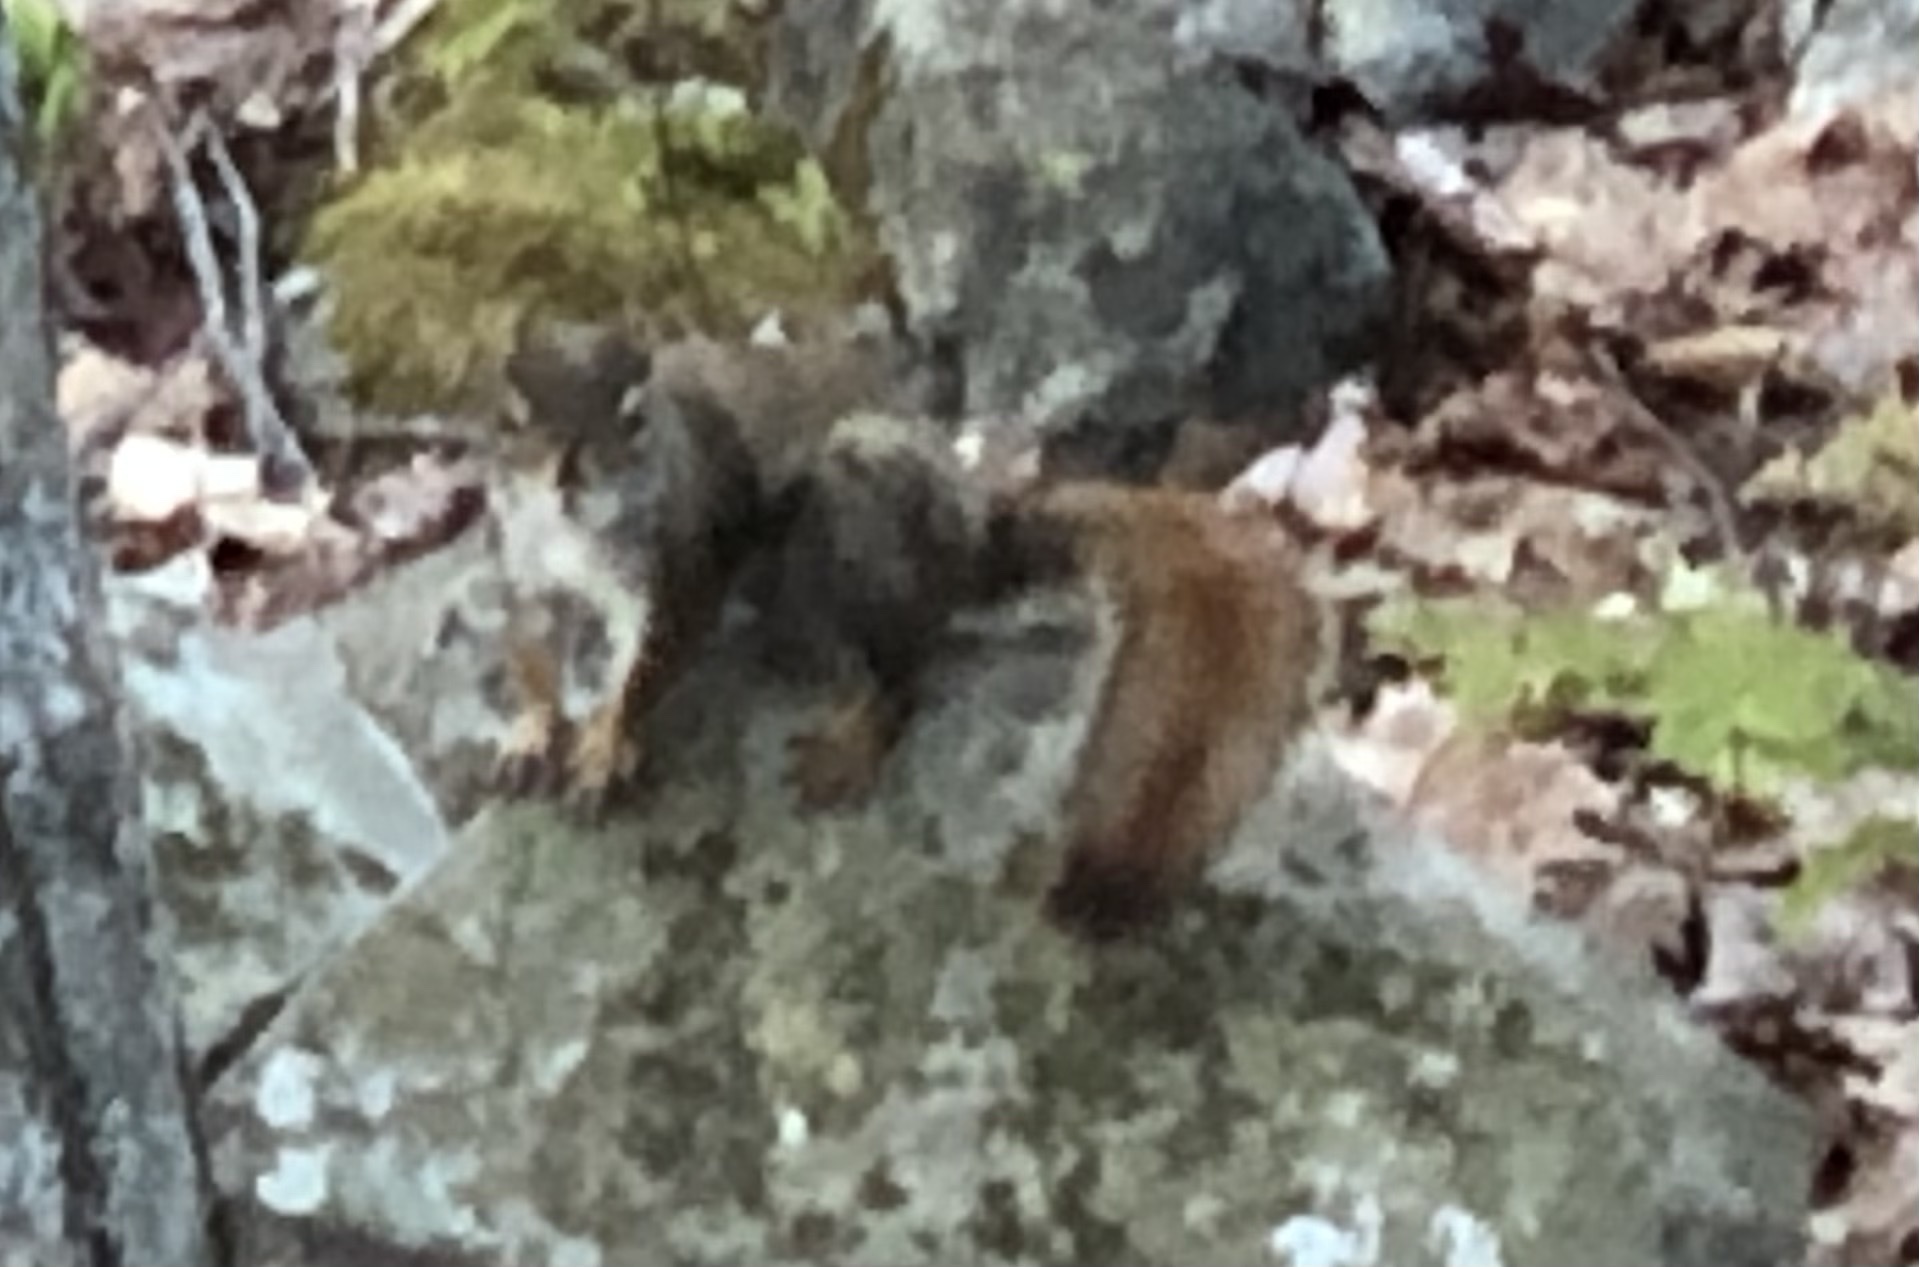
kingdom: Animalia
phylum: Chordata
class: Mammalia
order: Rodentia
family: Sciuridae
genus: Tamiasciurus
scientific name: Tamiasciurus hudsonicus
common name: Red squirrel
